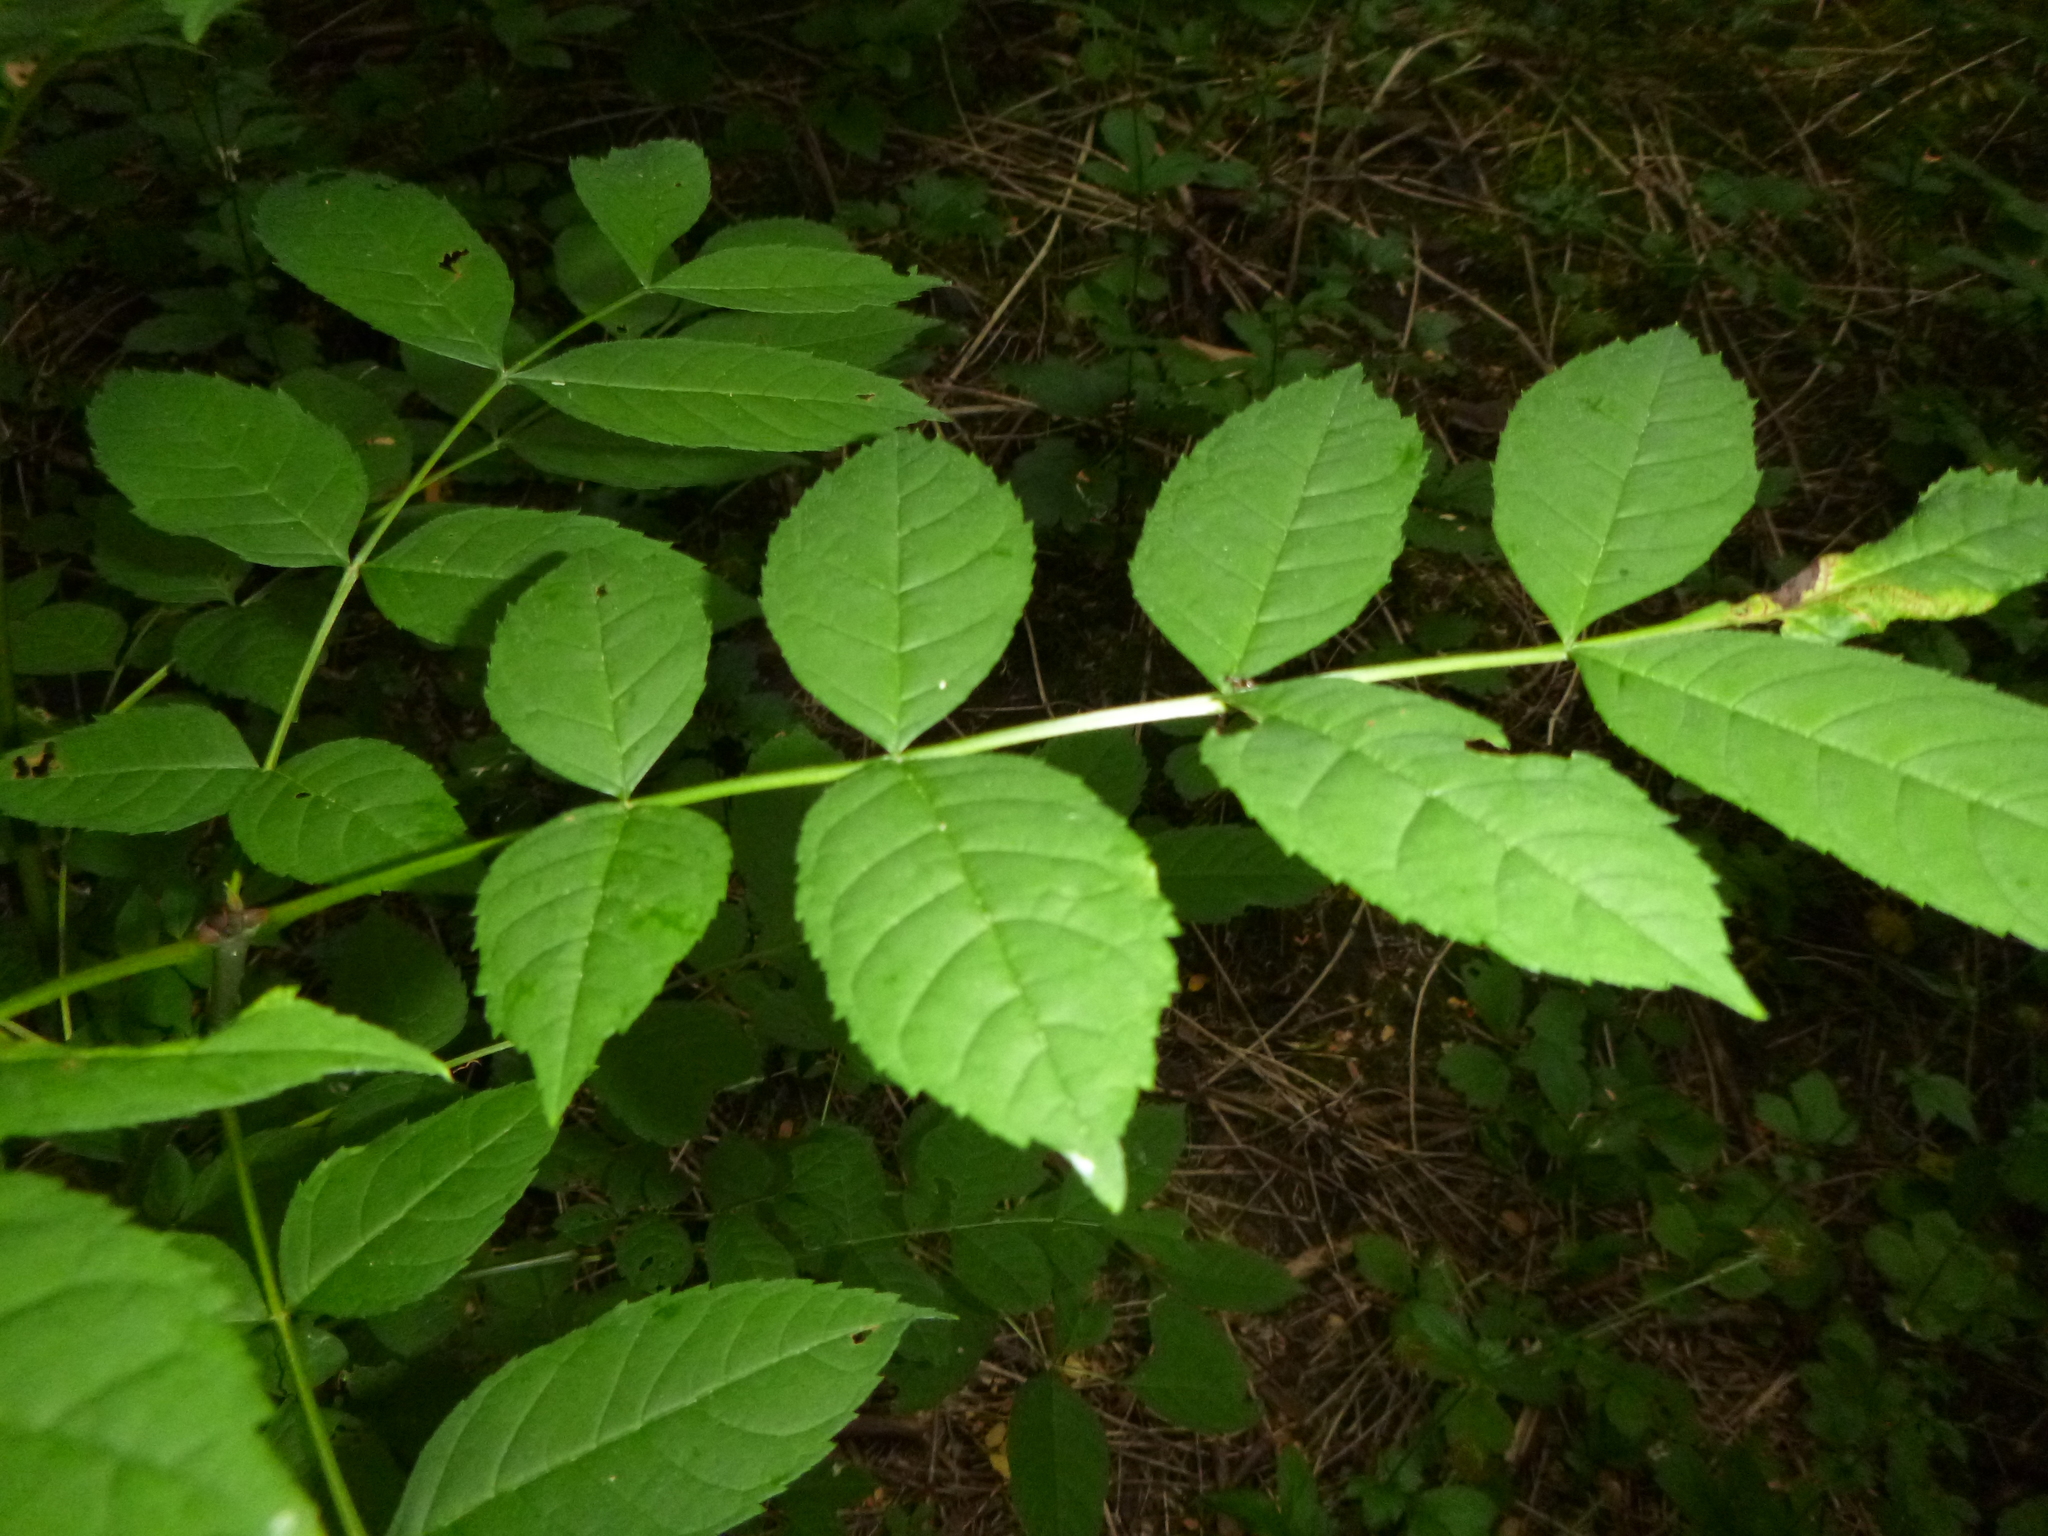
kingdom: Plantae
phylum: Tracheophyta
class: Magnoliopsida
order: Lamiales
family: Oleaceae
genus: Fraxinus
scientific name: Fraxinus excelsior
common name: European ash
